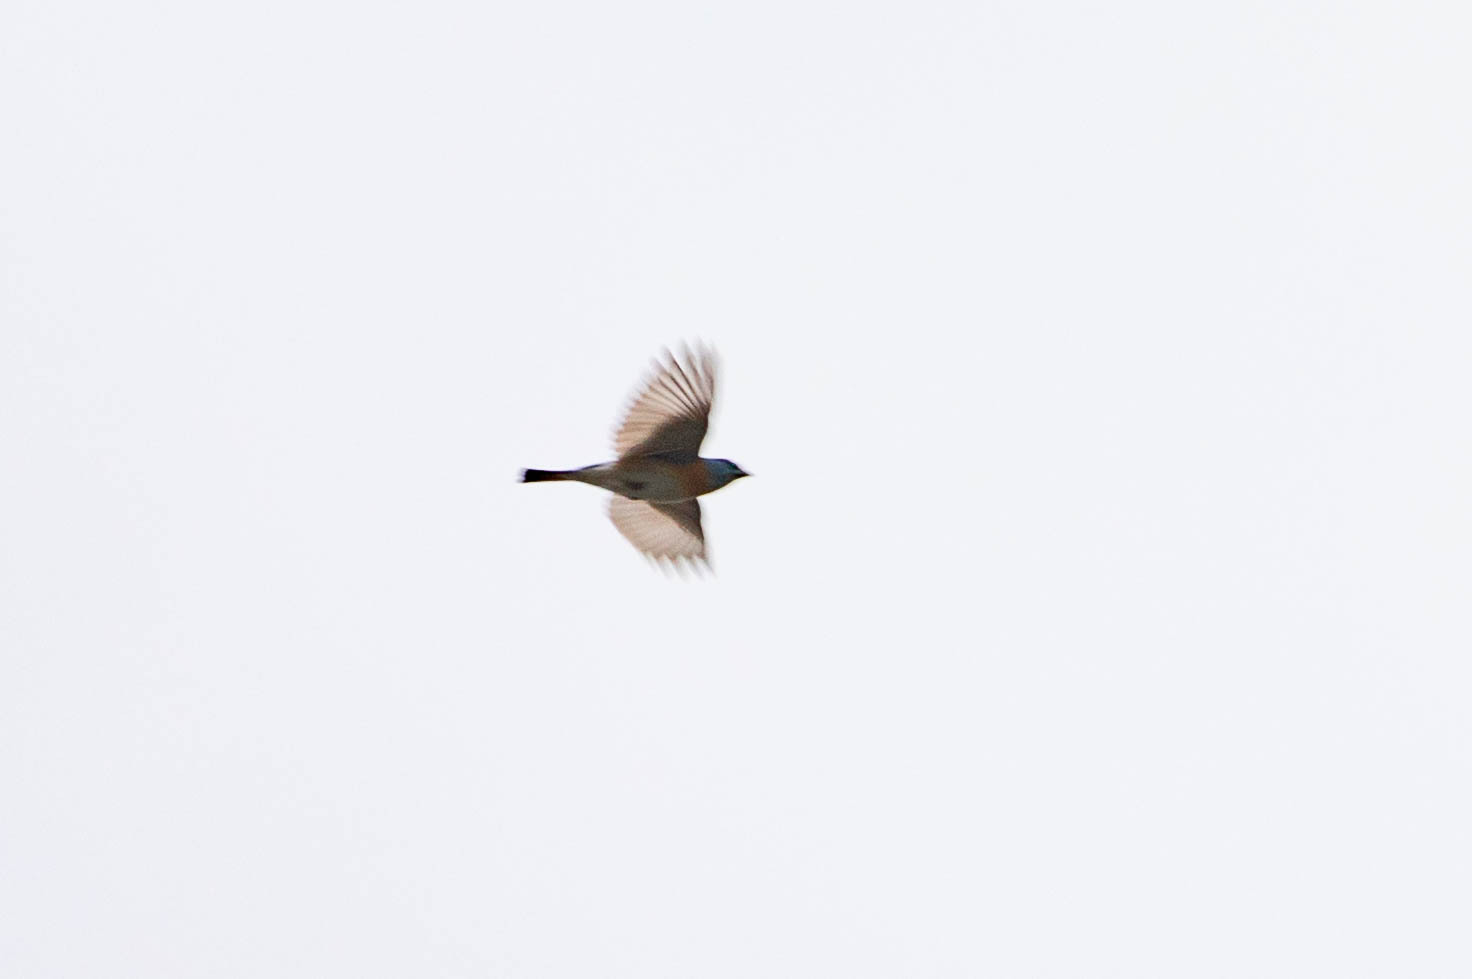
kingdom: Animalia
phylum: Chordata
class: Aves
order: Passeriformes
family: Cardinalidae
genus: Passerina
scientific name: Passerina amoena
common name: Lazuli bunting
